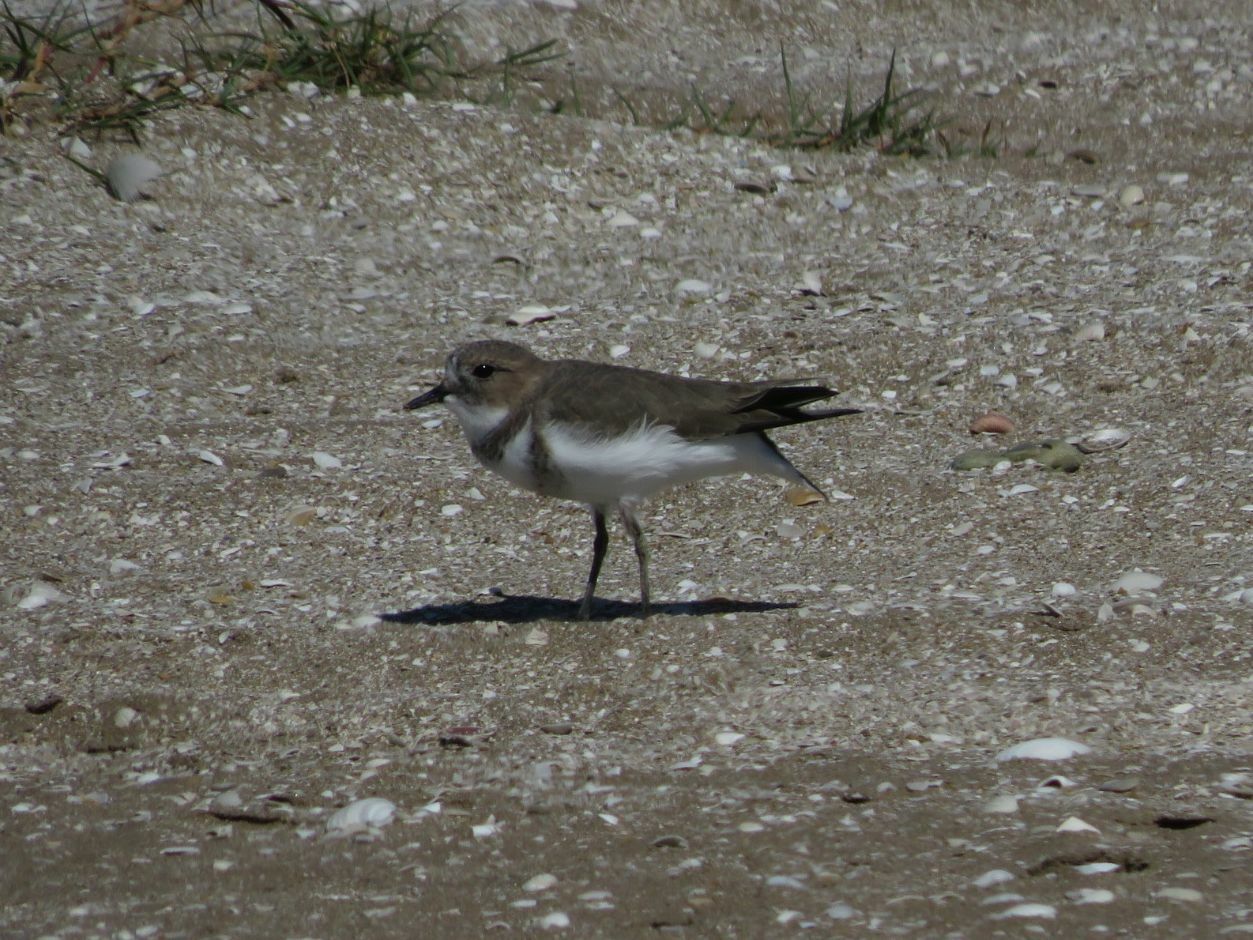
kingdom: Animalia
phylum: Chordata
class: Aves
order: Charadriiformes
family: Charadriidae
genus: Anarhynchus
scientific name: Anarhynchus
